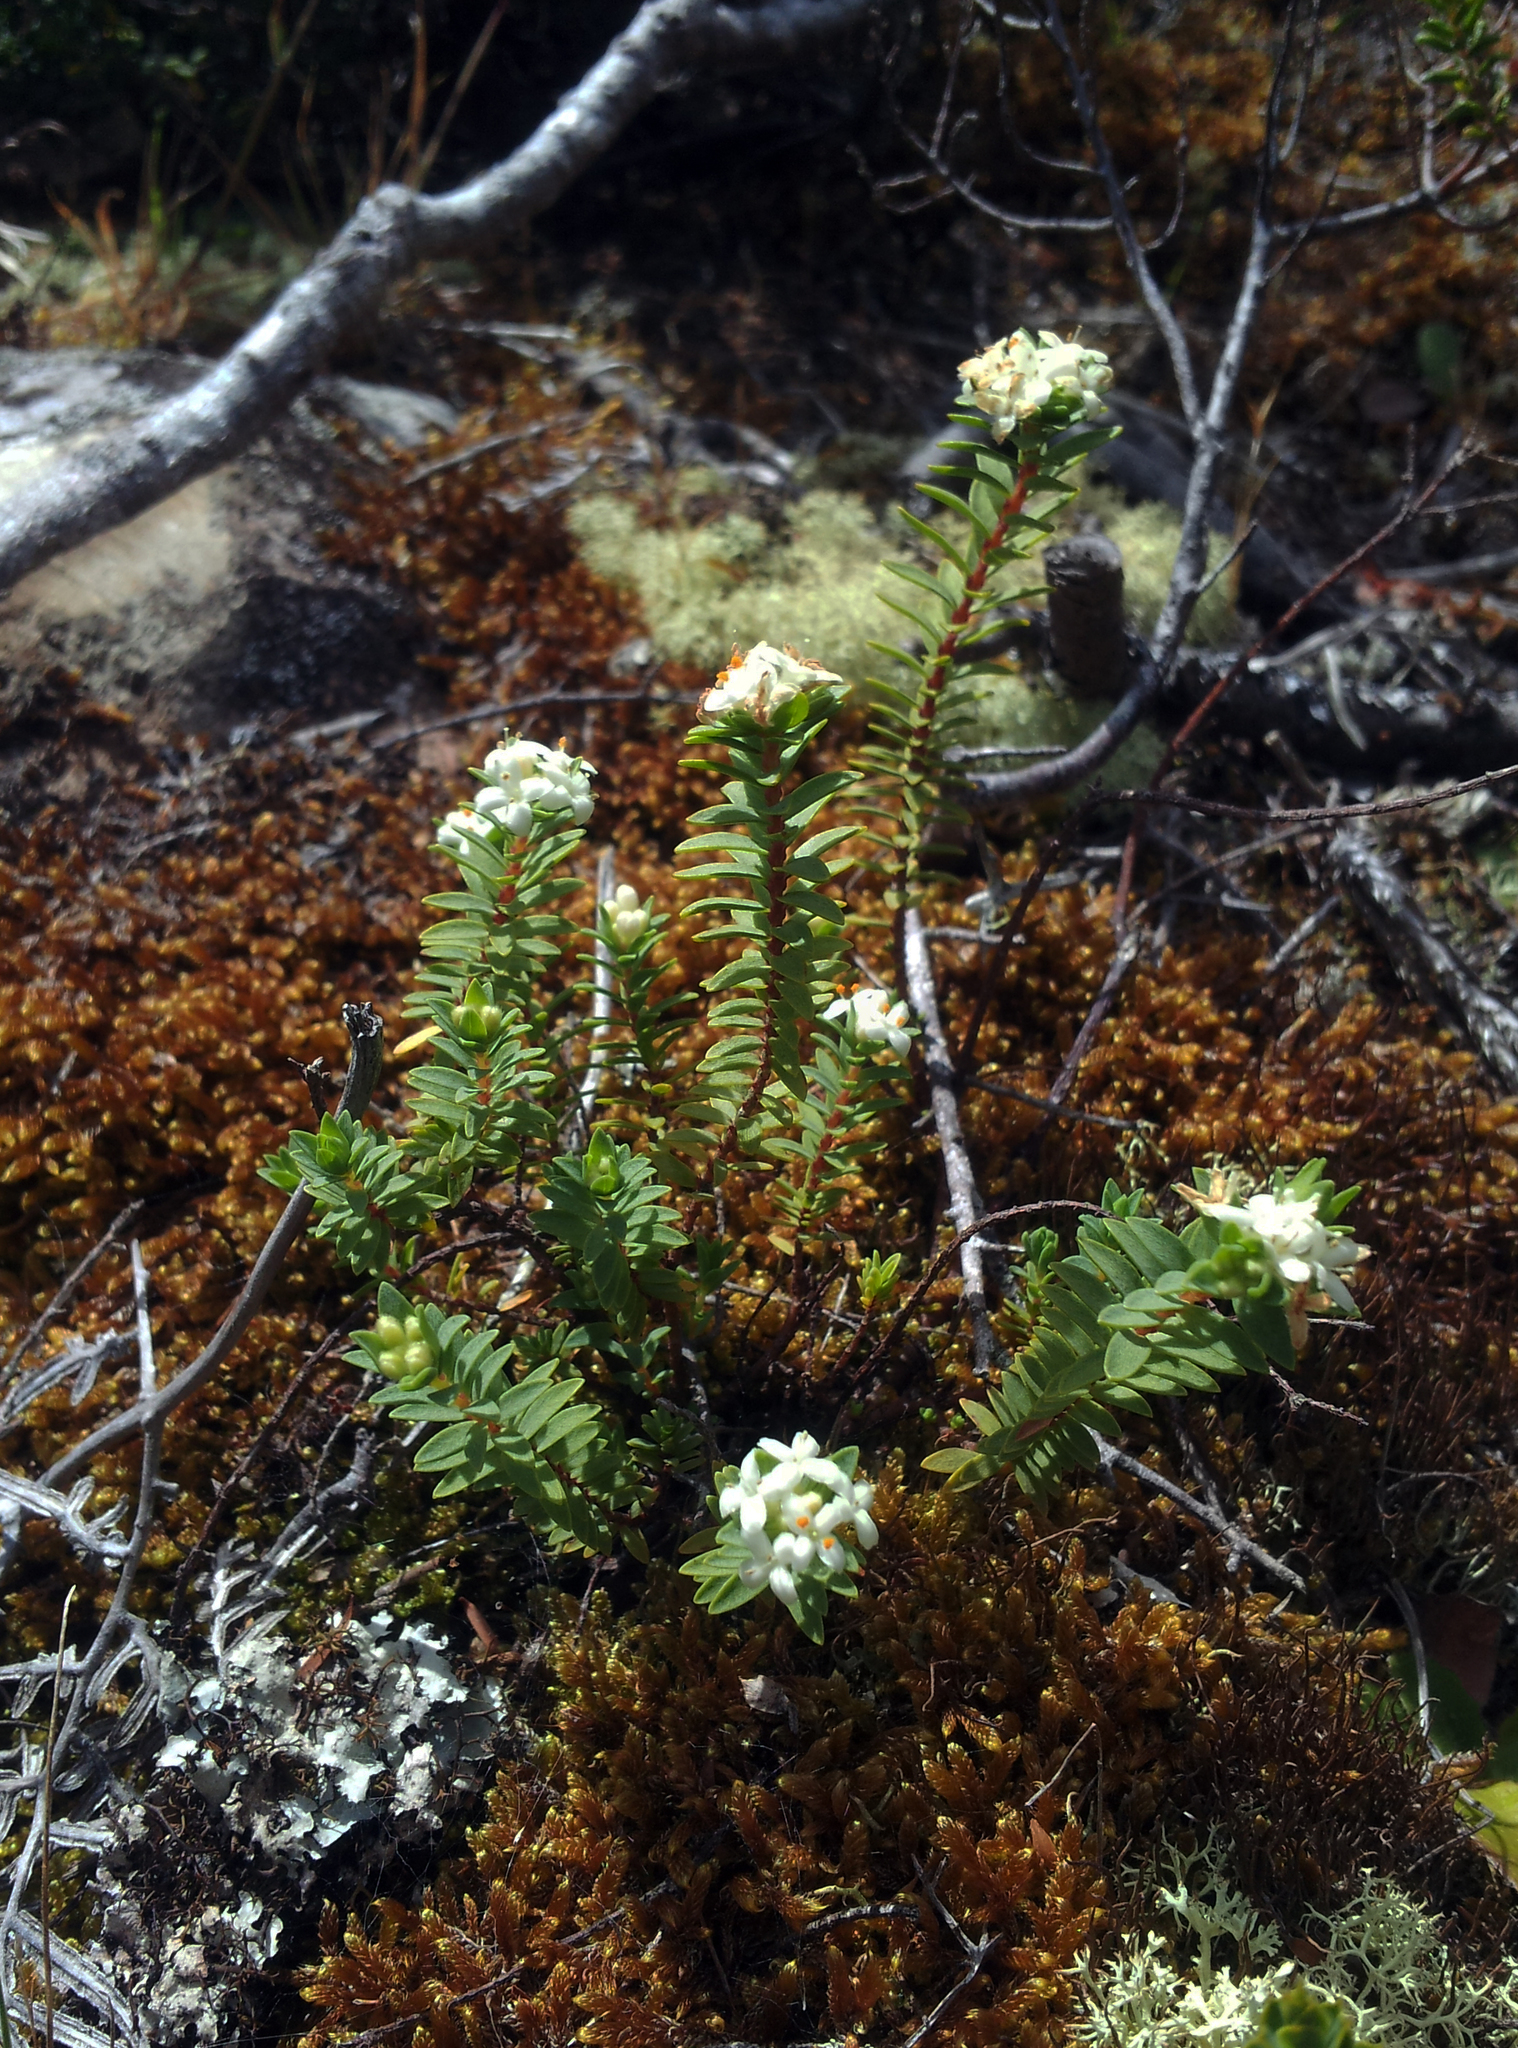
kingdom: Plantae
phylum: Tracheophyta
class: Magnoliopsida
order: Malvales
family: Thymelaeaceae
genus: Pimelea
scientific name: Pimelea orthia
